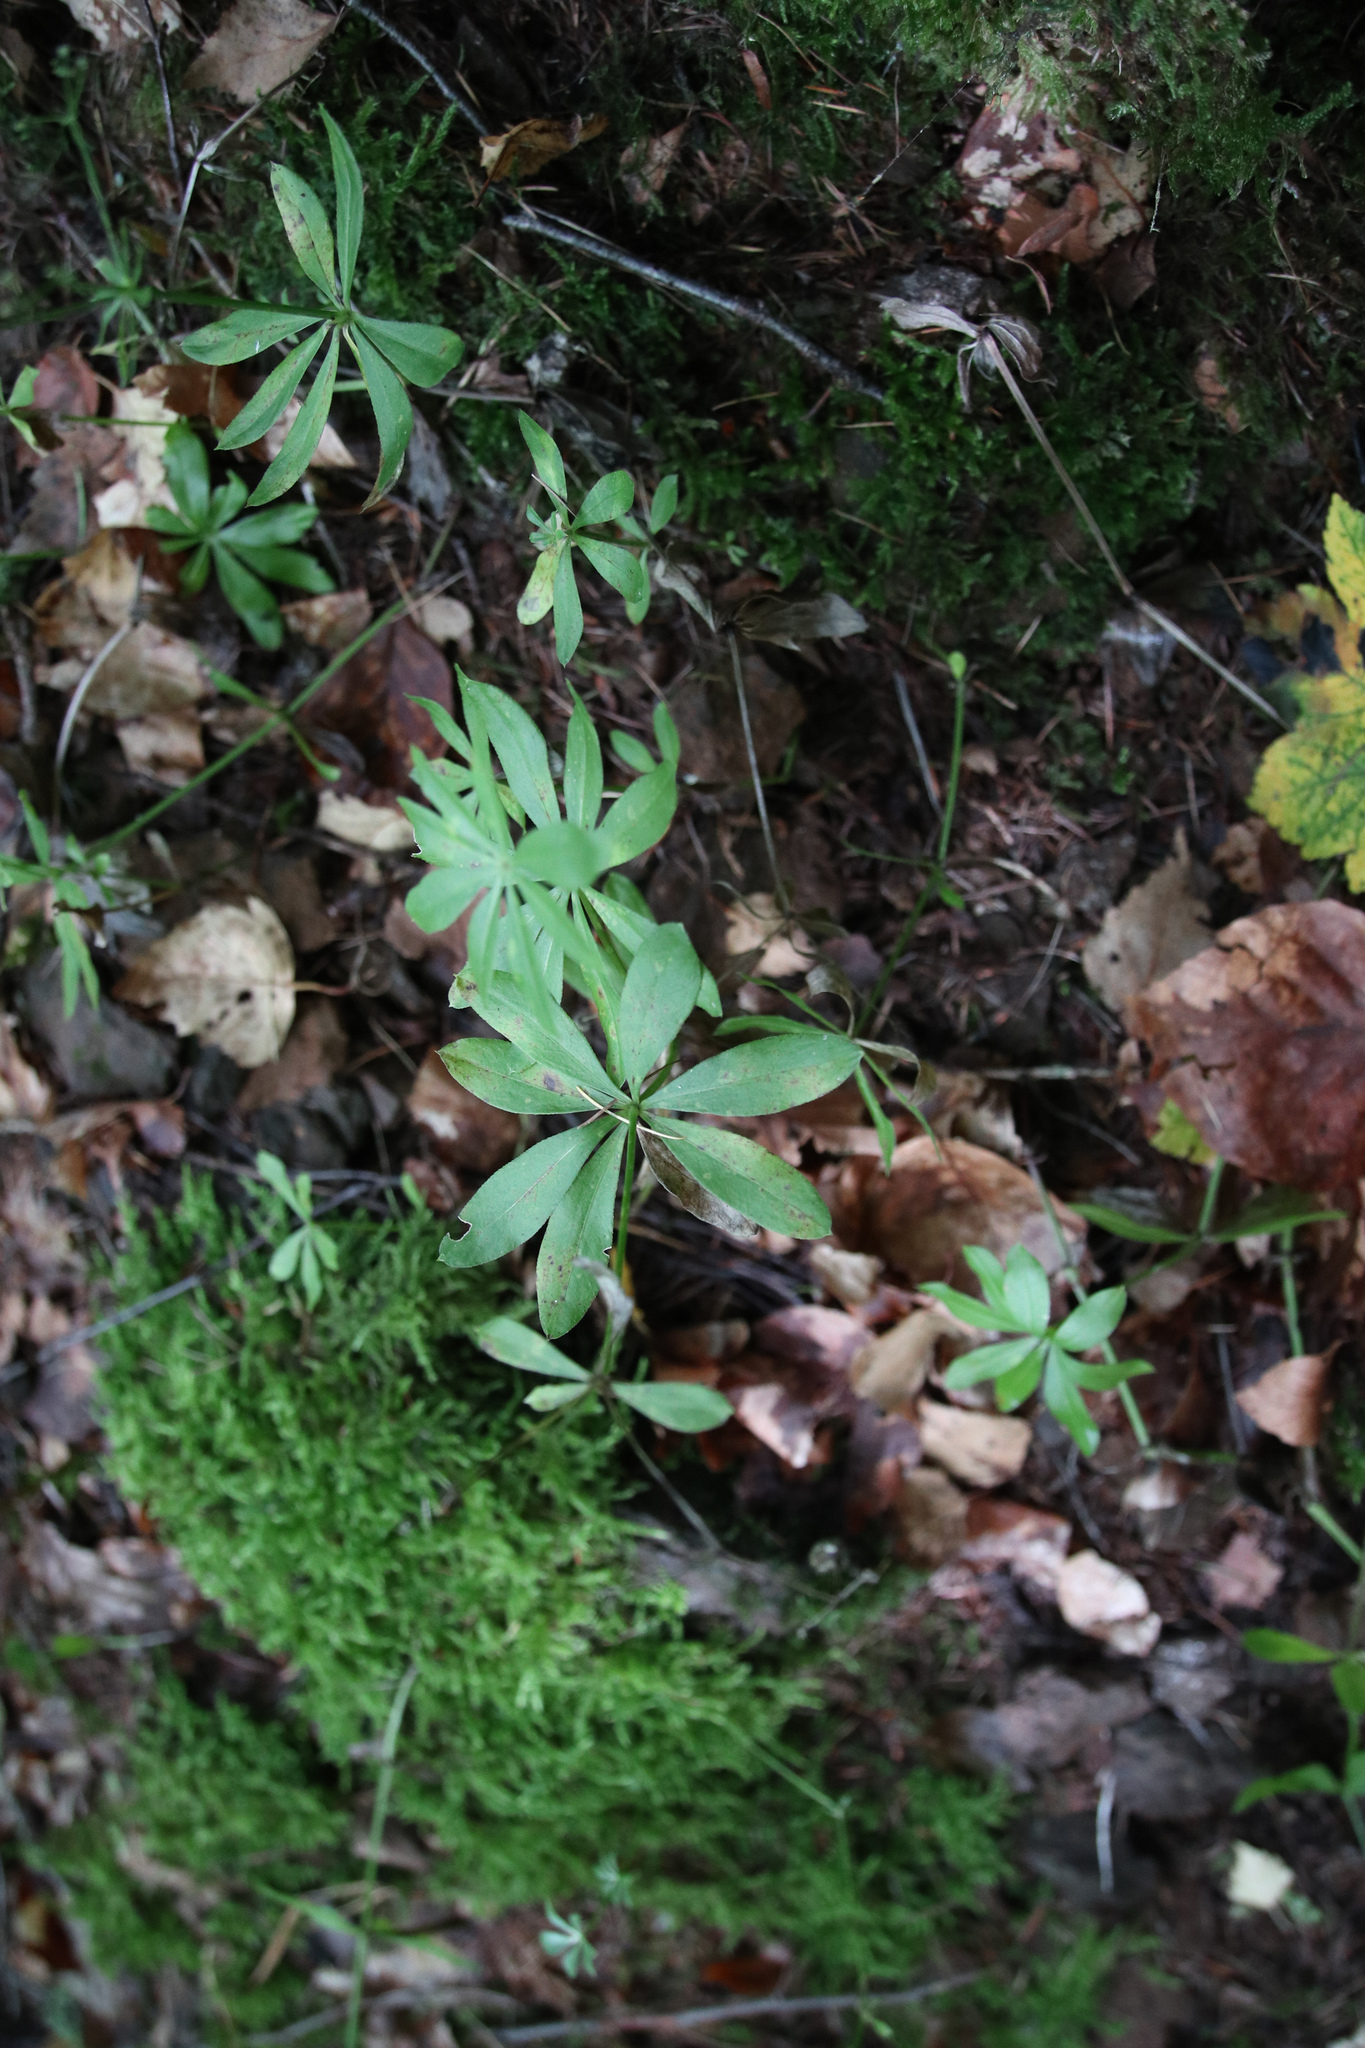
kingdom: Plantae
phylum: Tracheophyta
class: Magnoliopsida
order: Gentianales
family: Rubiaceae
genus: Galium
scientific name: Galium odoratum
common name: Sweet woodruff
